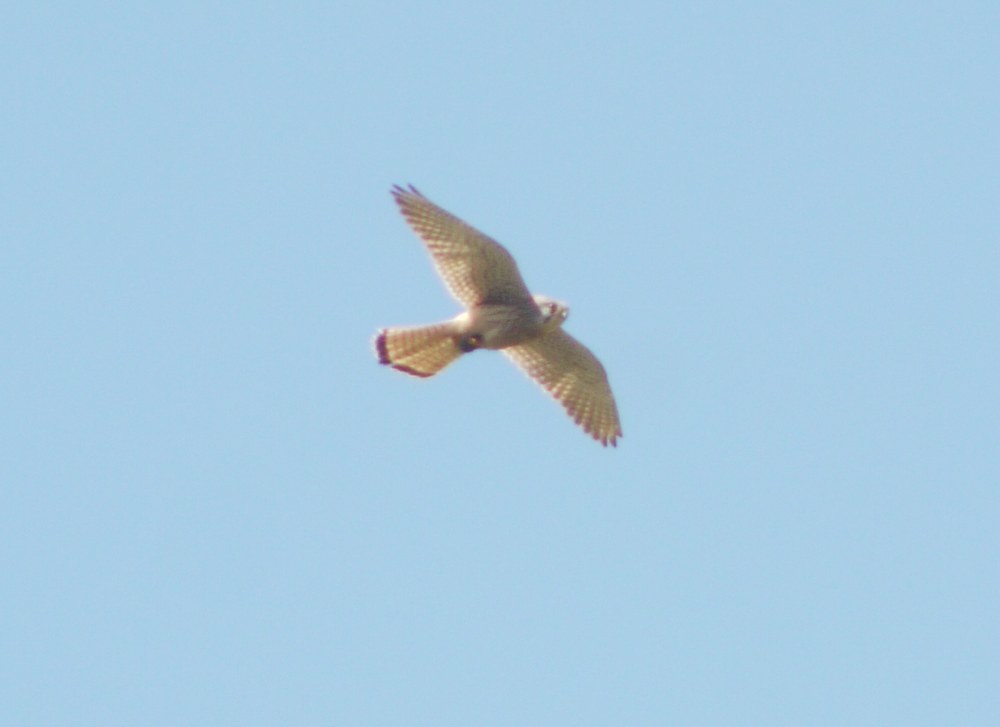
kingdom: Animalia
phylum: Chordata
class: Aves
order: Falconiformes
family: Falconidae
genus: Falco
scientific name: Falco tinnunculus
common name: Common kestrel
